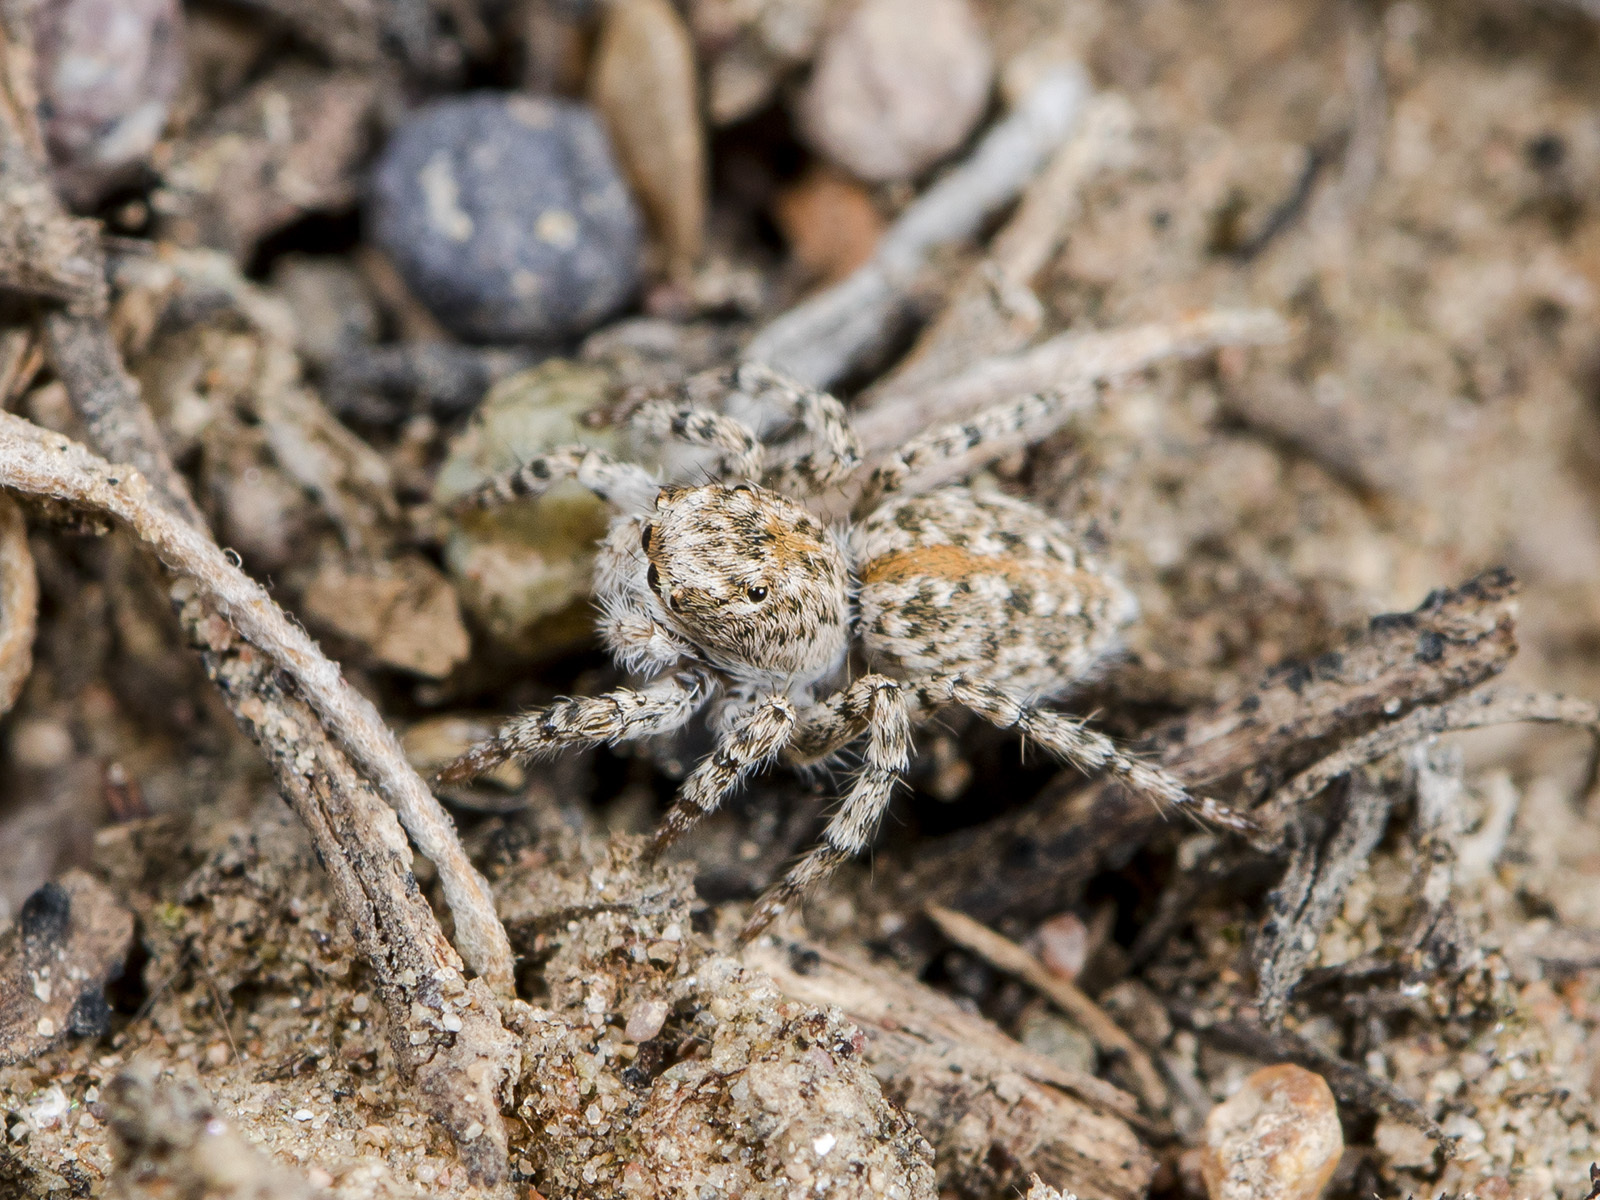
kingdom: Animalia
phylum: Arthropoda
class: Arachnida
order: Araneae
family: Salticidae
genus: Aelurillus
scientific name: Aelurillus dubatolovi
